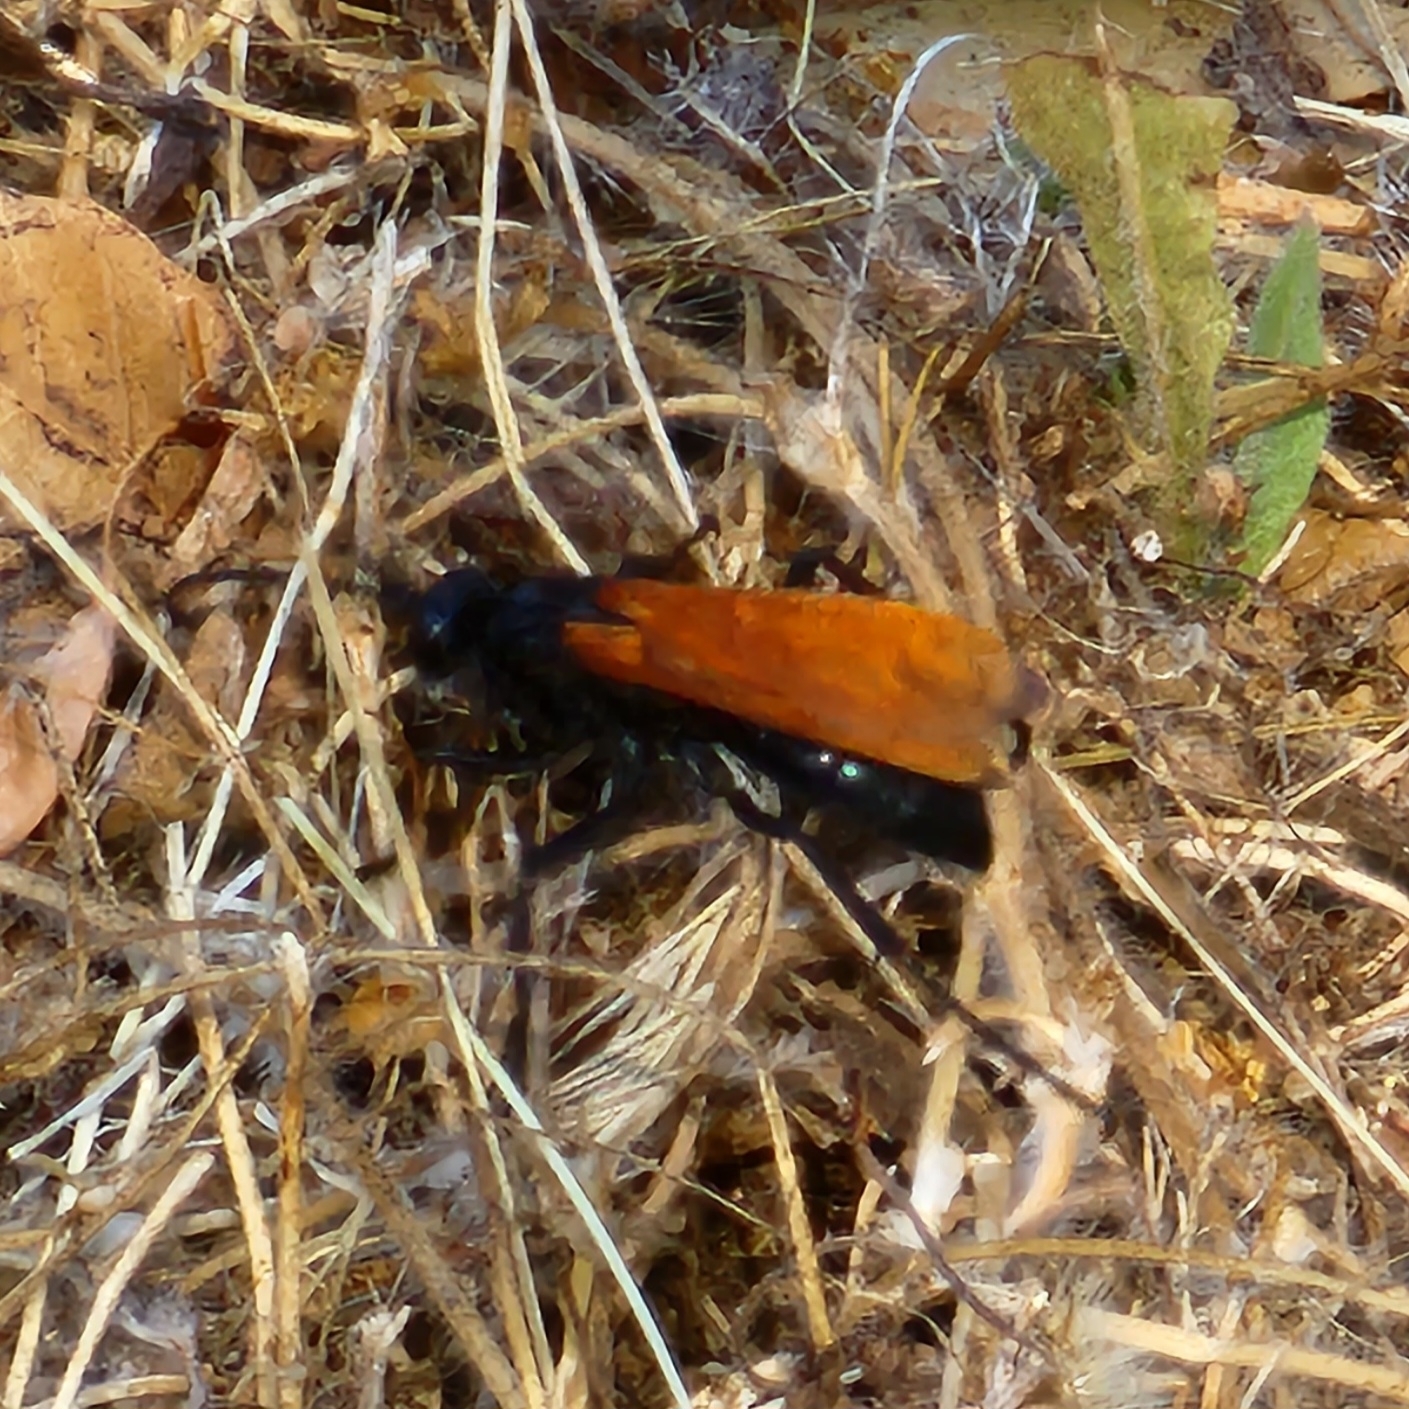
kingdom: Animalia
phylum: Arthropoda
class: Insecta
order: Hymenoptera
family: Pompilidae
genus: Pepsis
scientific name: Pepsis thisbe
